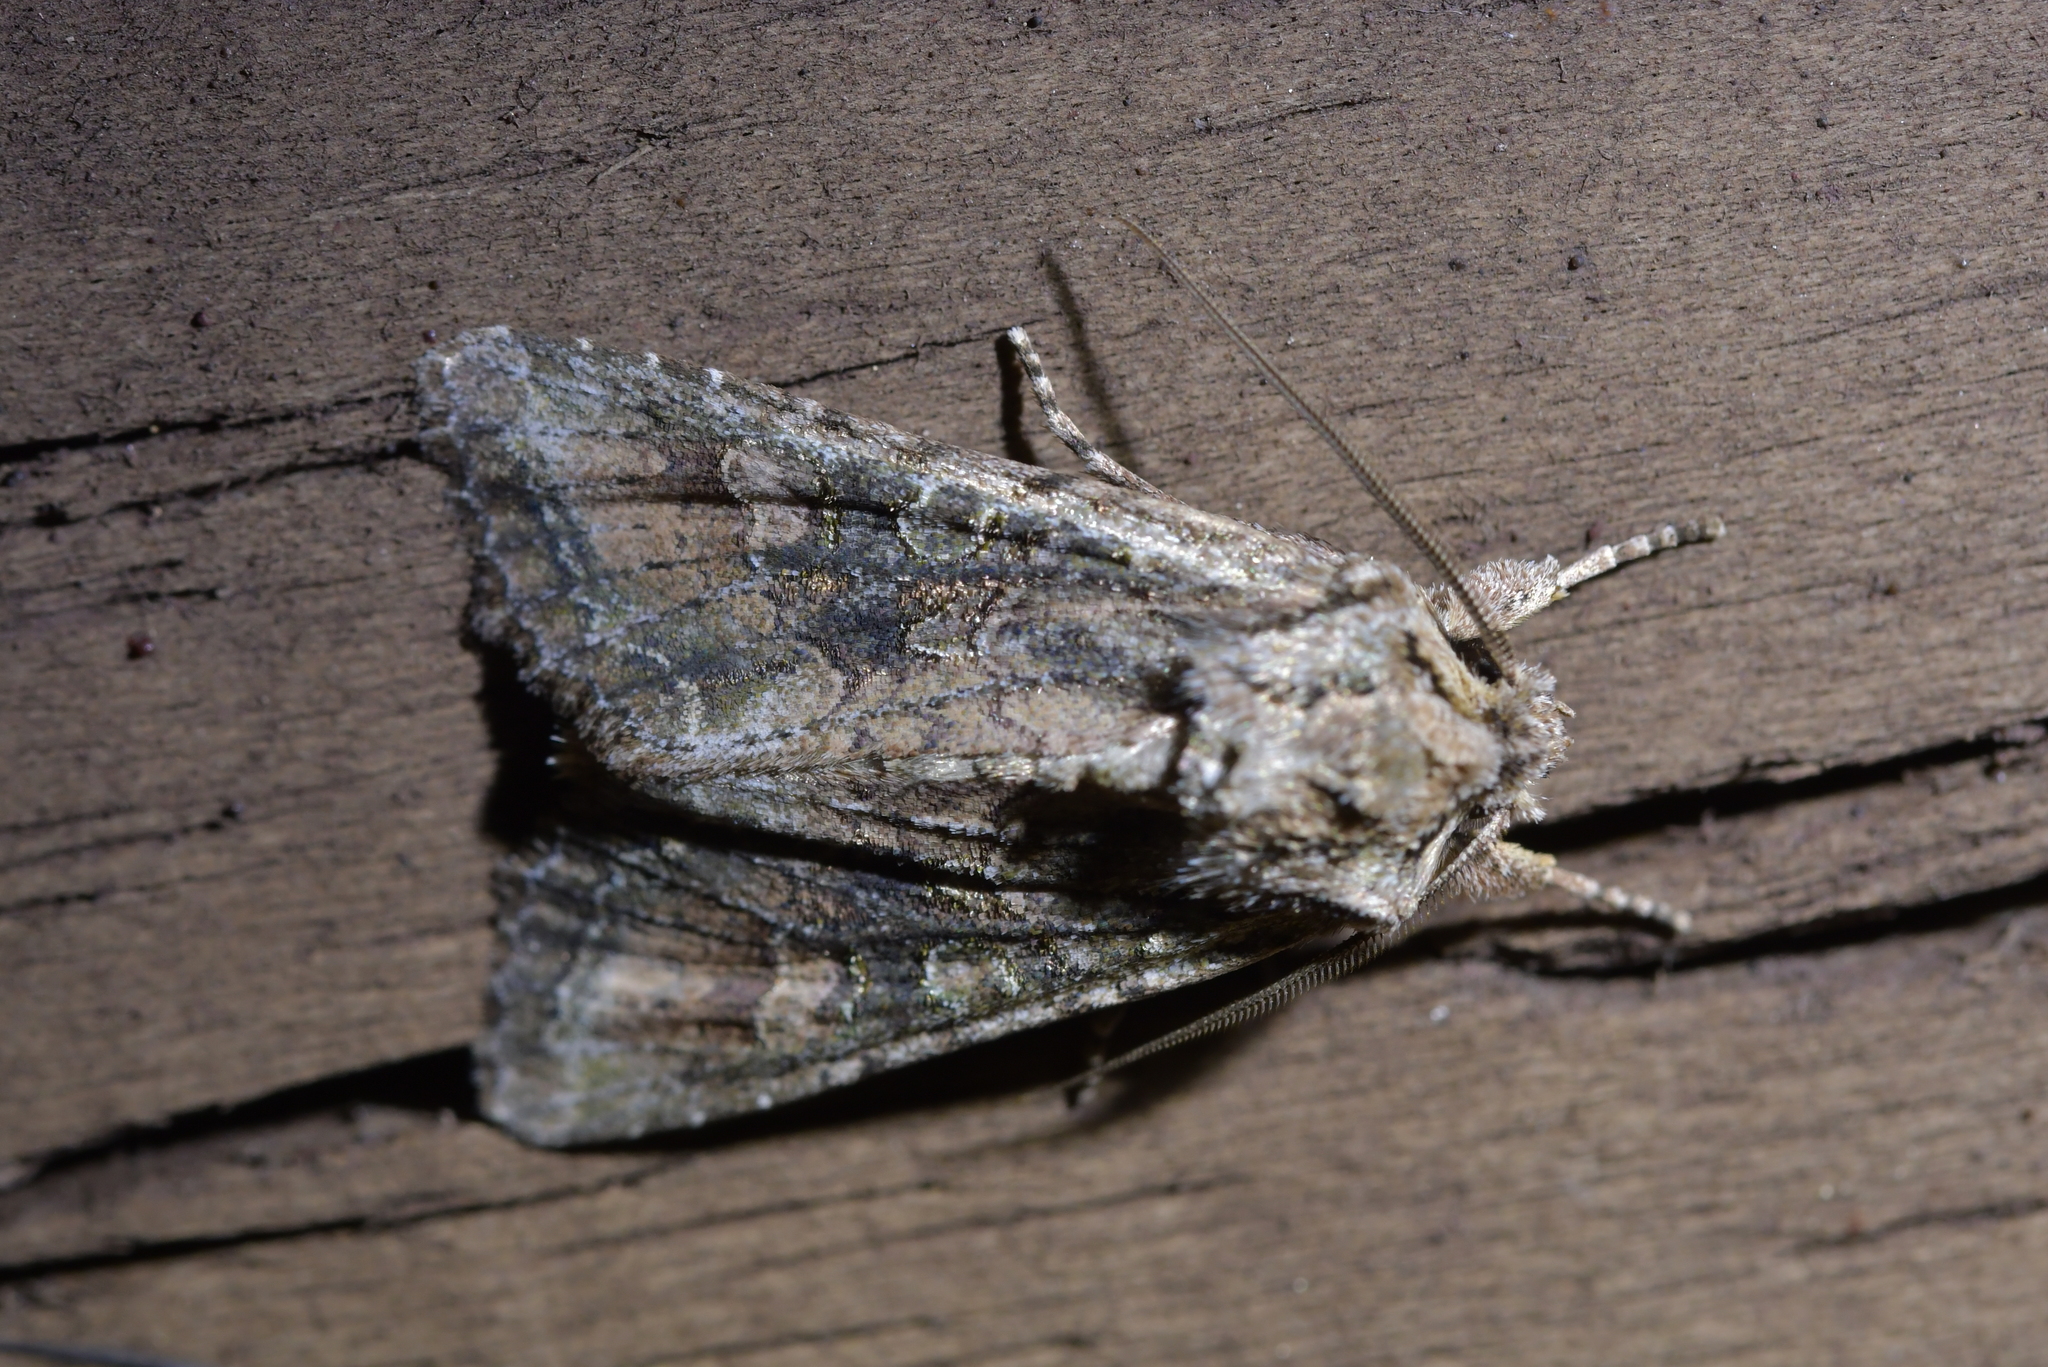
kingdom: Animalia
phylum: Arthropoda
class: Insecta
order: Lepidoptera
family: Noctuidae
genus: Ichneutica
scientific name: Ichneutica mutans
